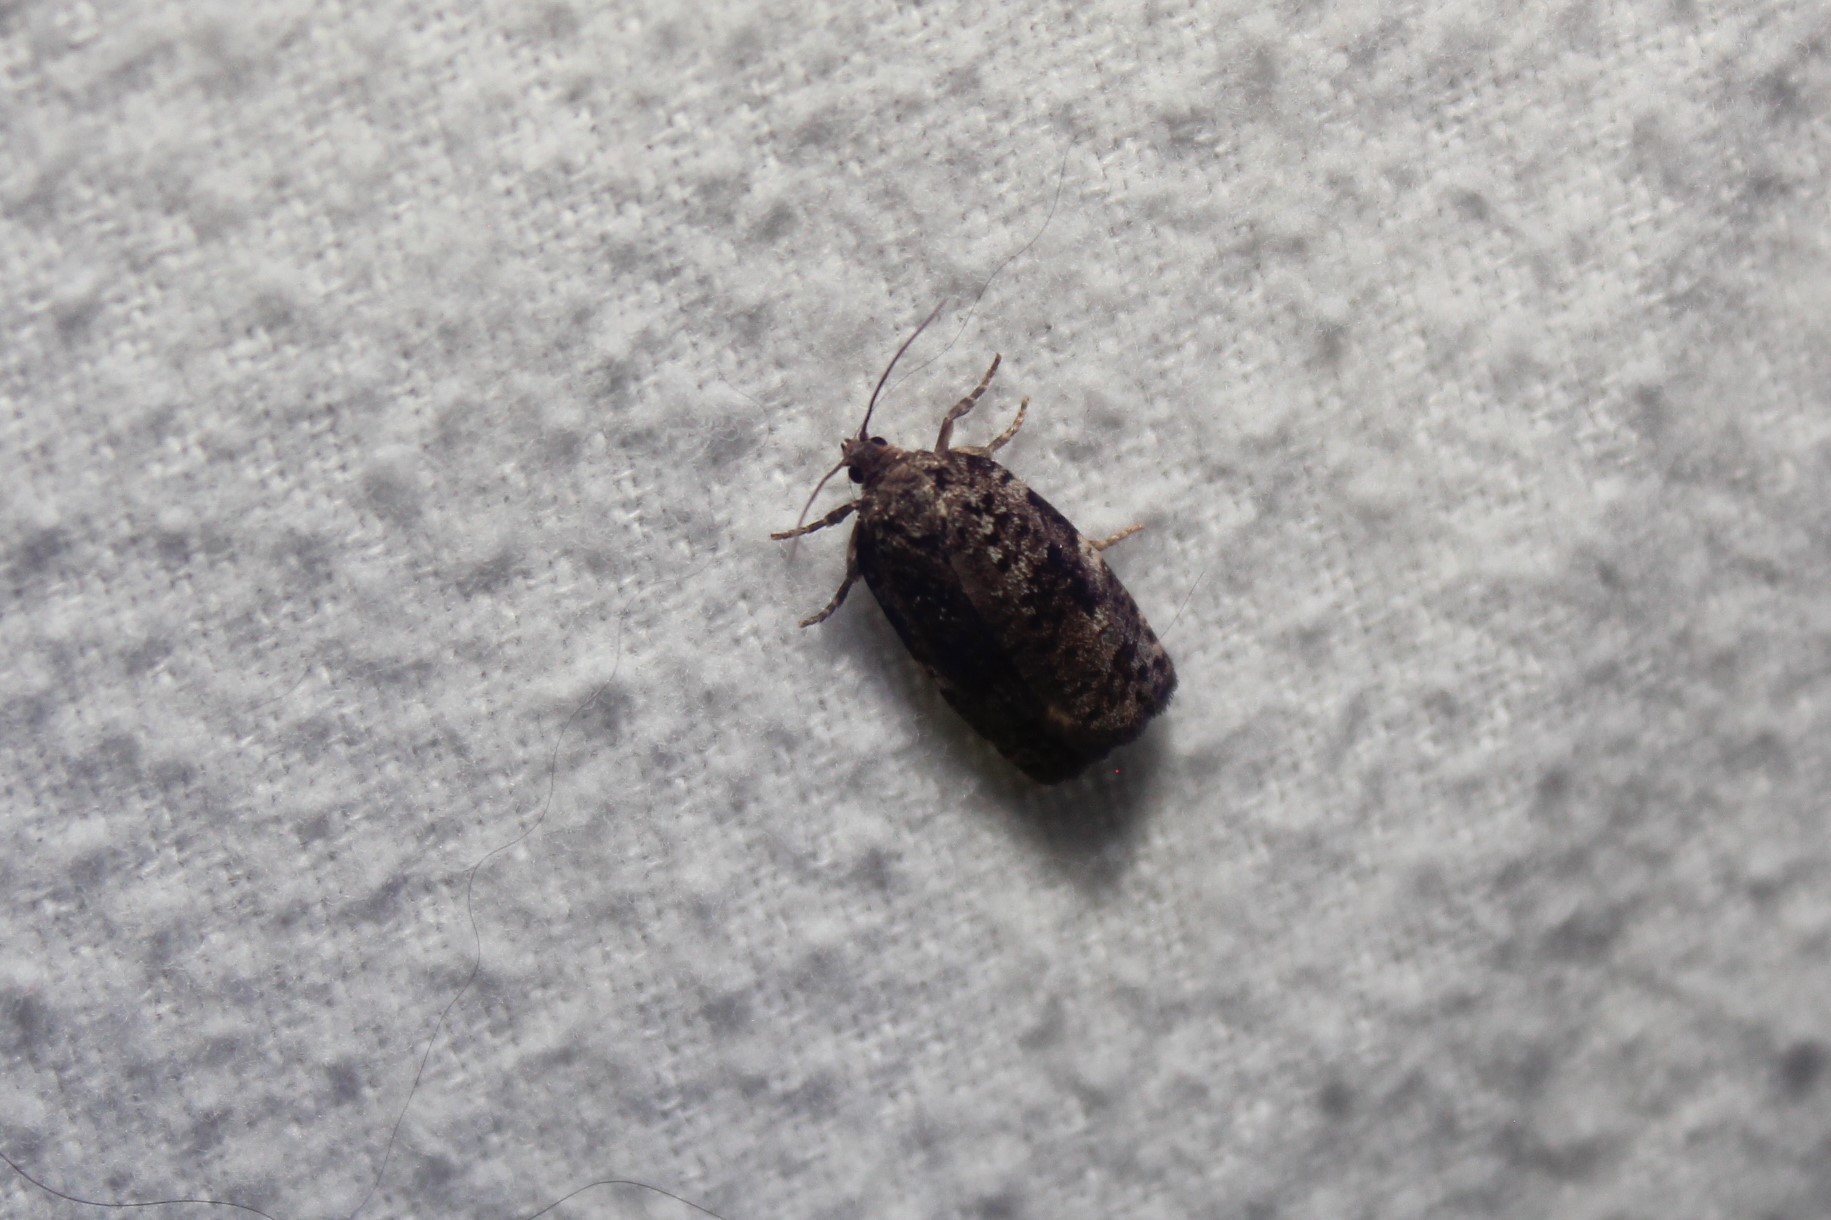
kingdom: Animalia
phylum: Arthropoda
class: Insecta
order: Lepidoptera
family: Tortricidae
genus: Choristoneura
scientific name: Choristoneura fumiferana
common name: Spruce budworm
